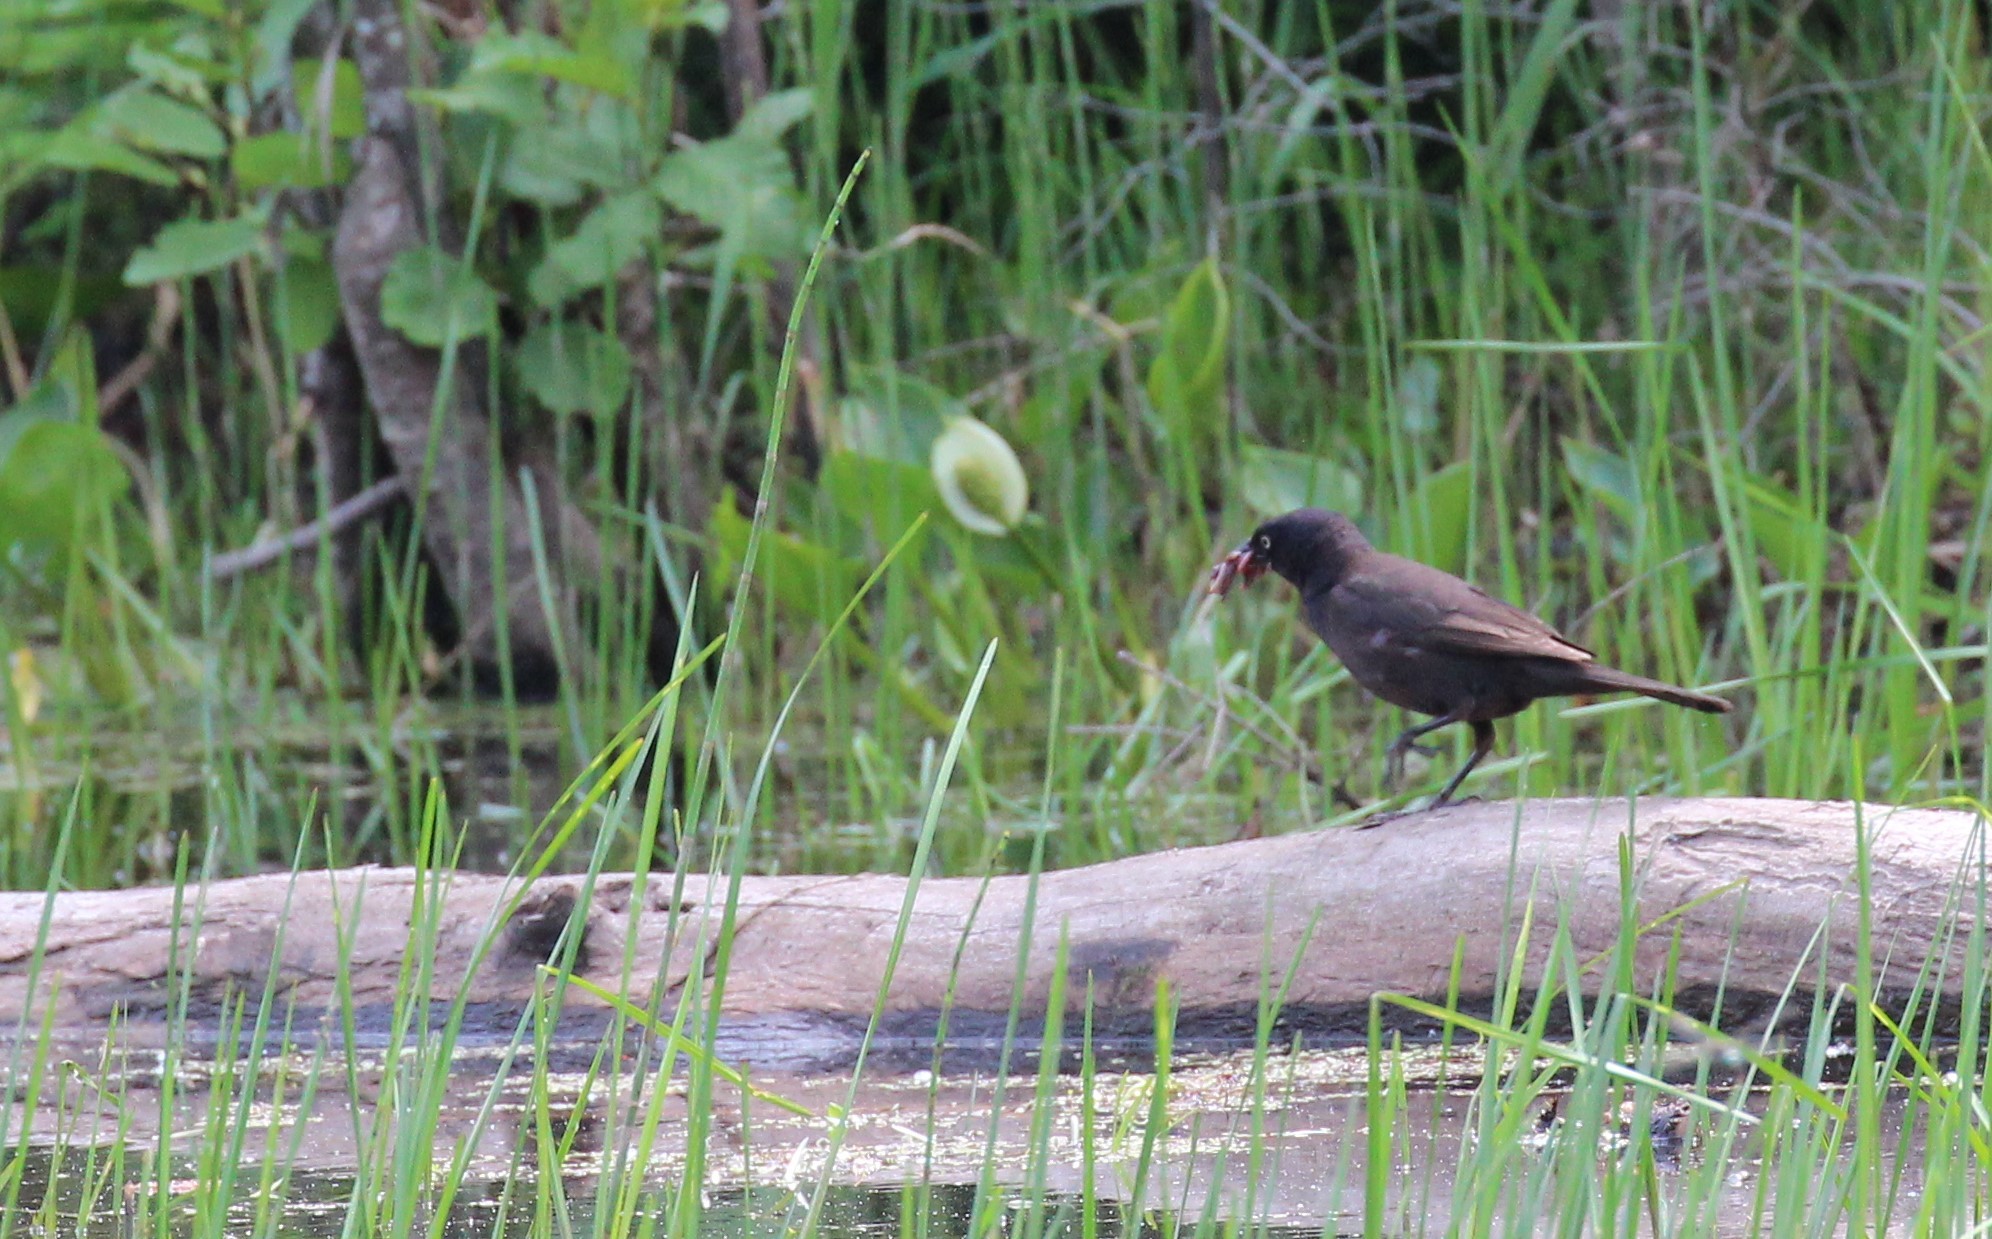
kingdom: Animalia
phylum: Chordata
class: Aves
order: Passeriformes
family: Icteridae
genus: Euphagus
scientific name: Euphagus carolinus
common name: Rusty blackbird
